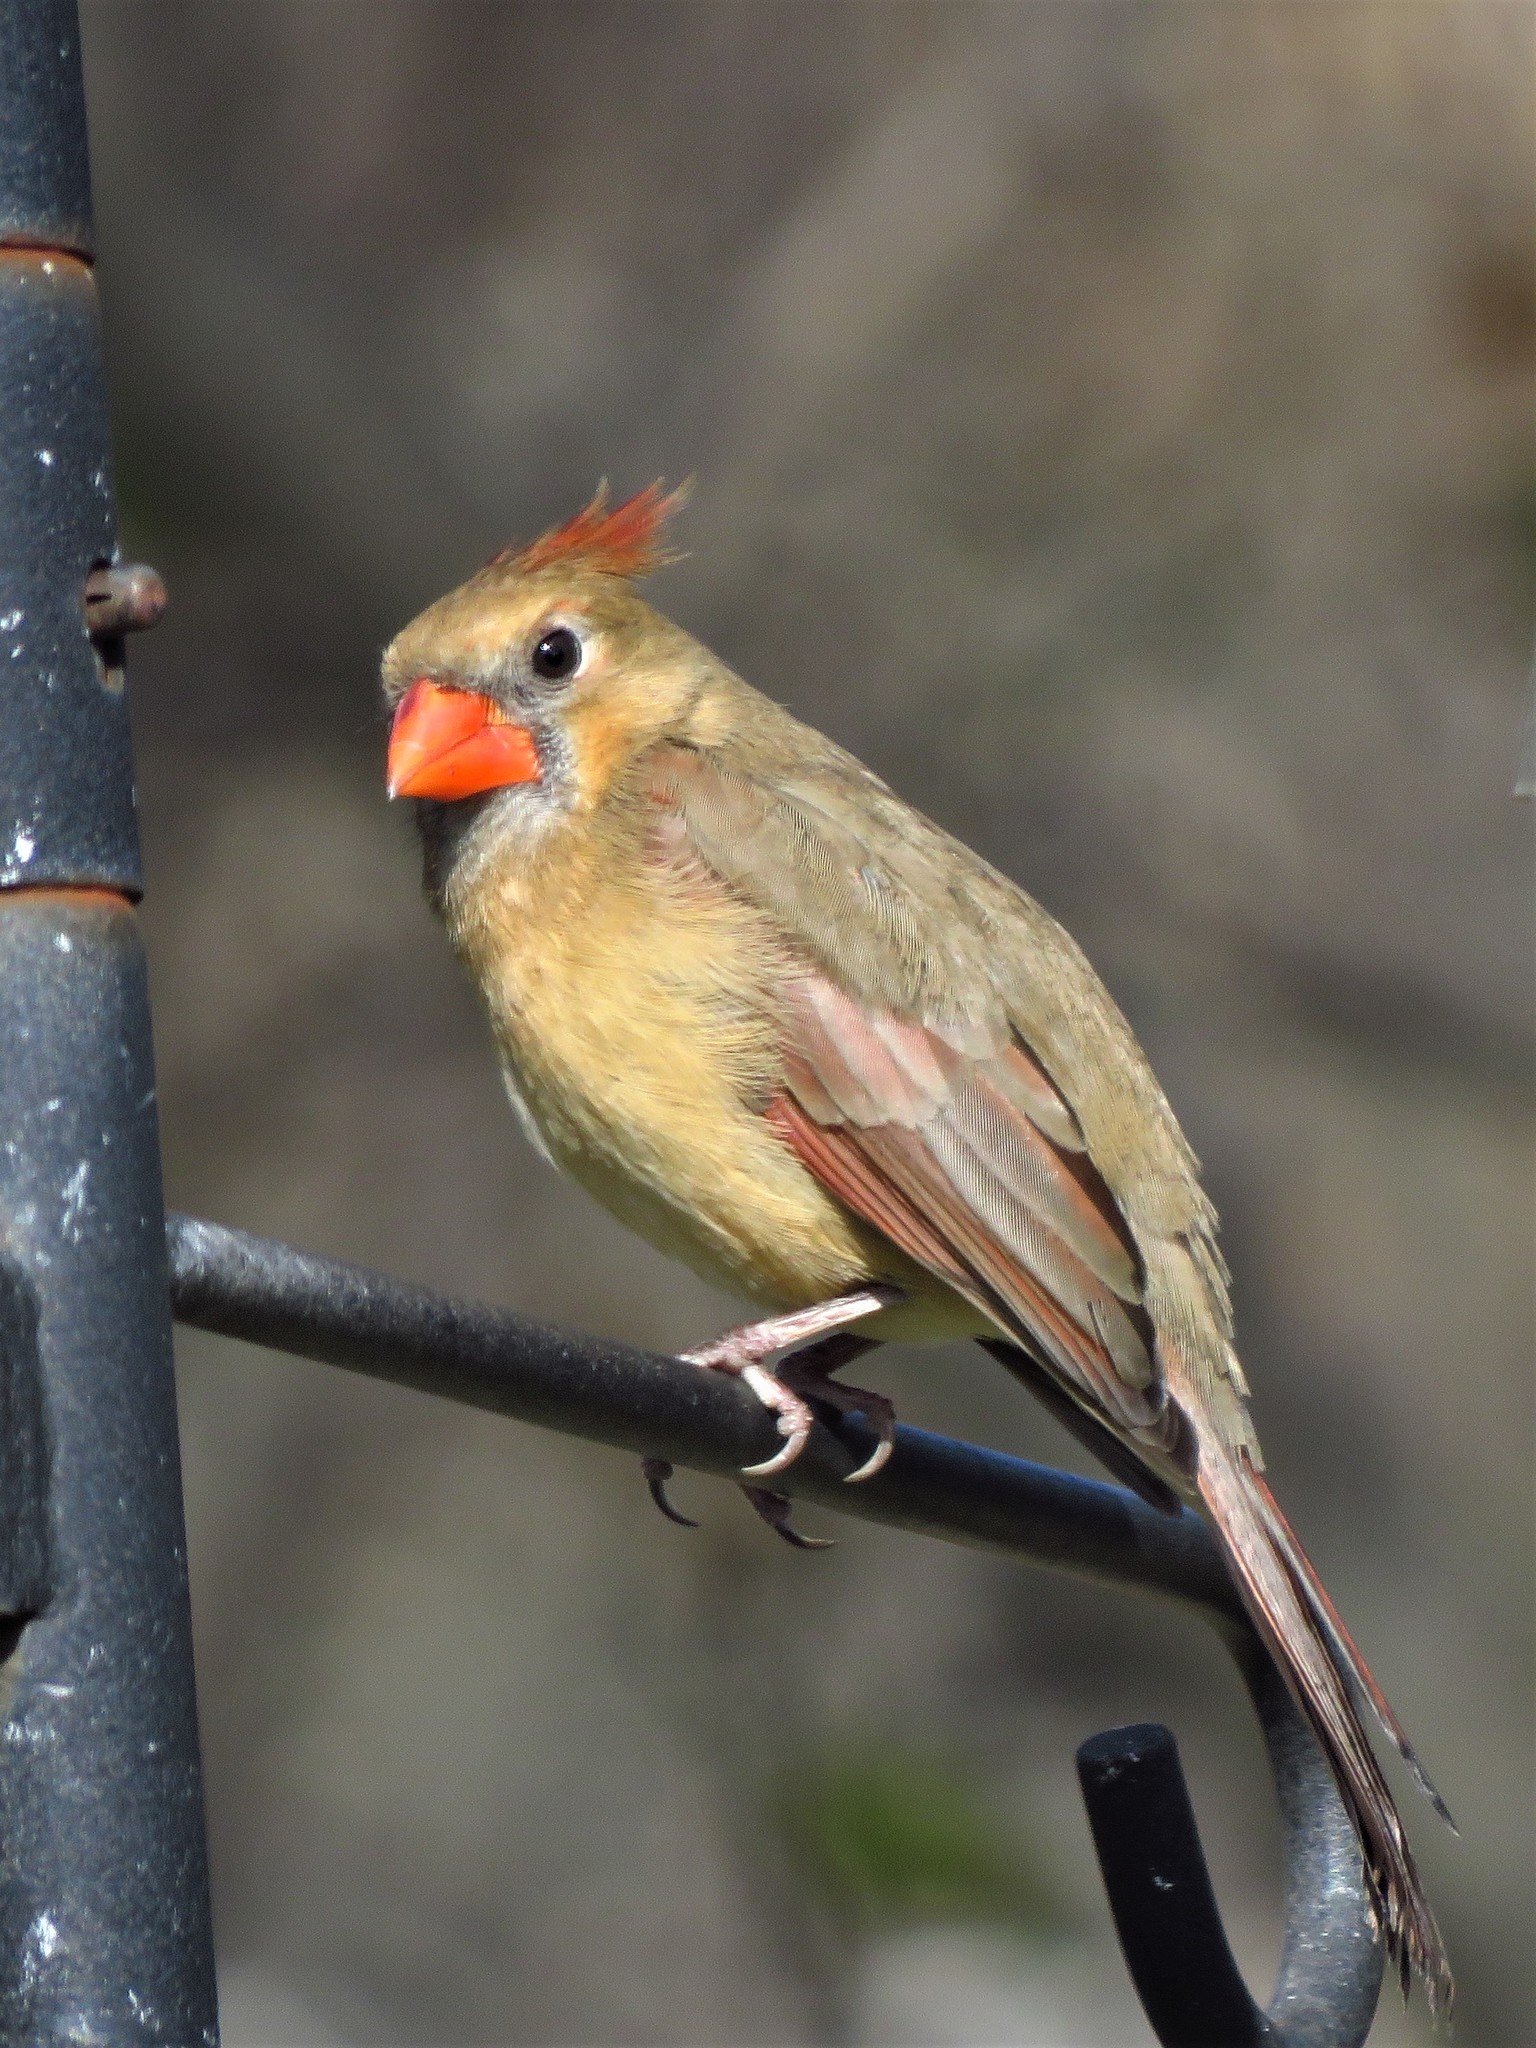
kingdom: Animalia
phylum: Chordata
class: Aves
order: Passeriformes
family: Cardinalidae
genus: Cardinalis
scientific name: Cardinalis cardinalis
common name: Northern cardinal
